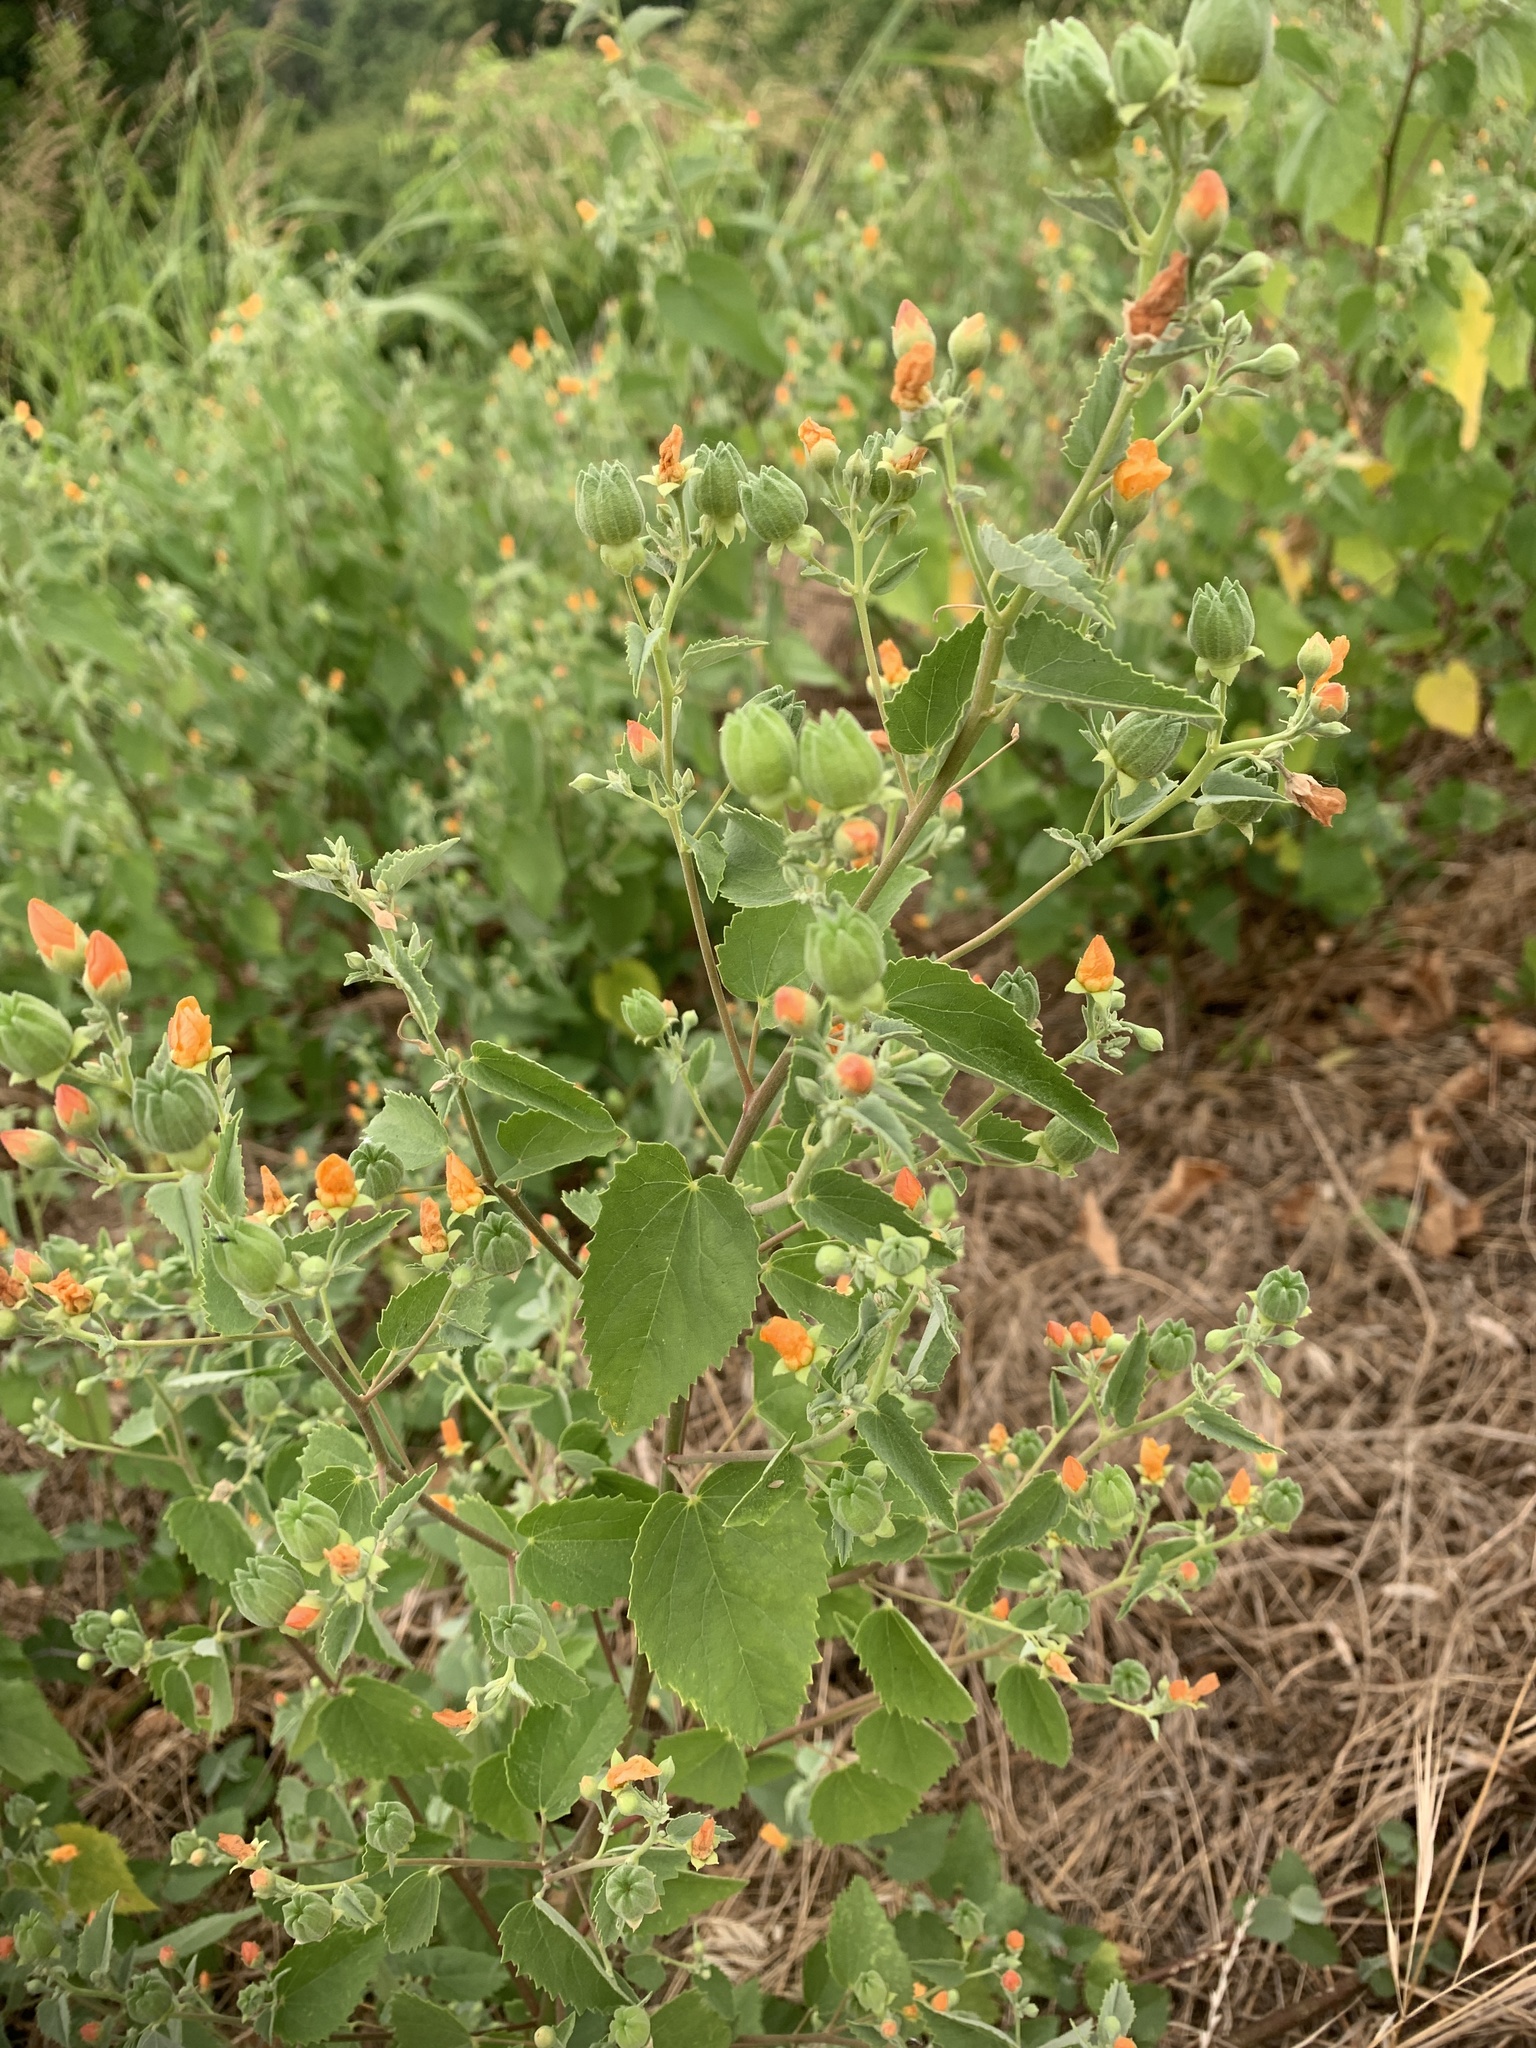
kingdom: Plantae
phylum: Tracheophyta
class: Magnoliopsida
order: Malvales
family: Malvaceae
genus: Abutilon
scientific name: Abutilon fruticosum
